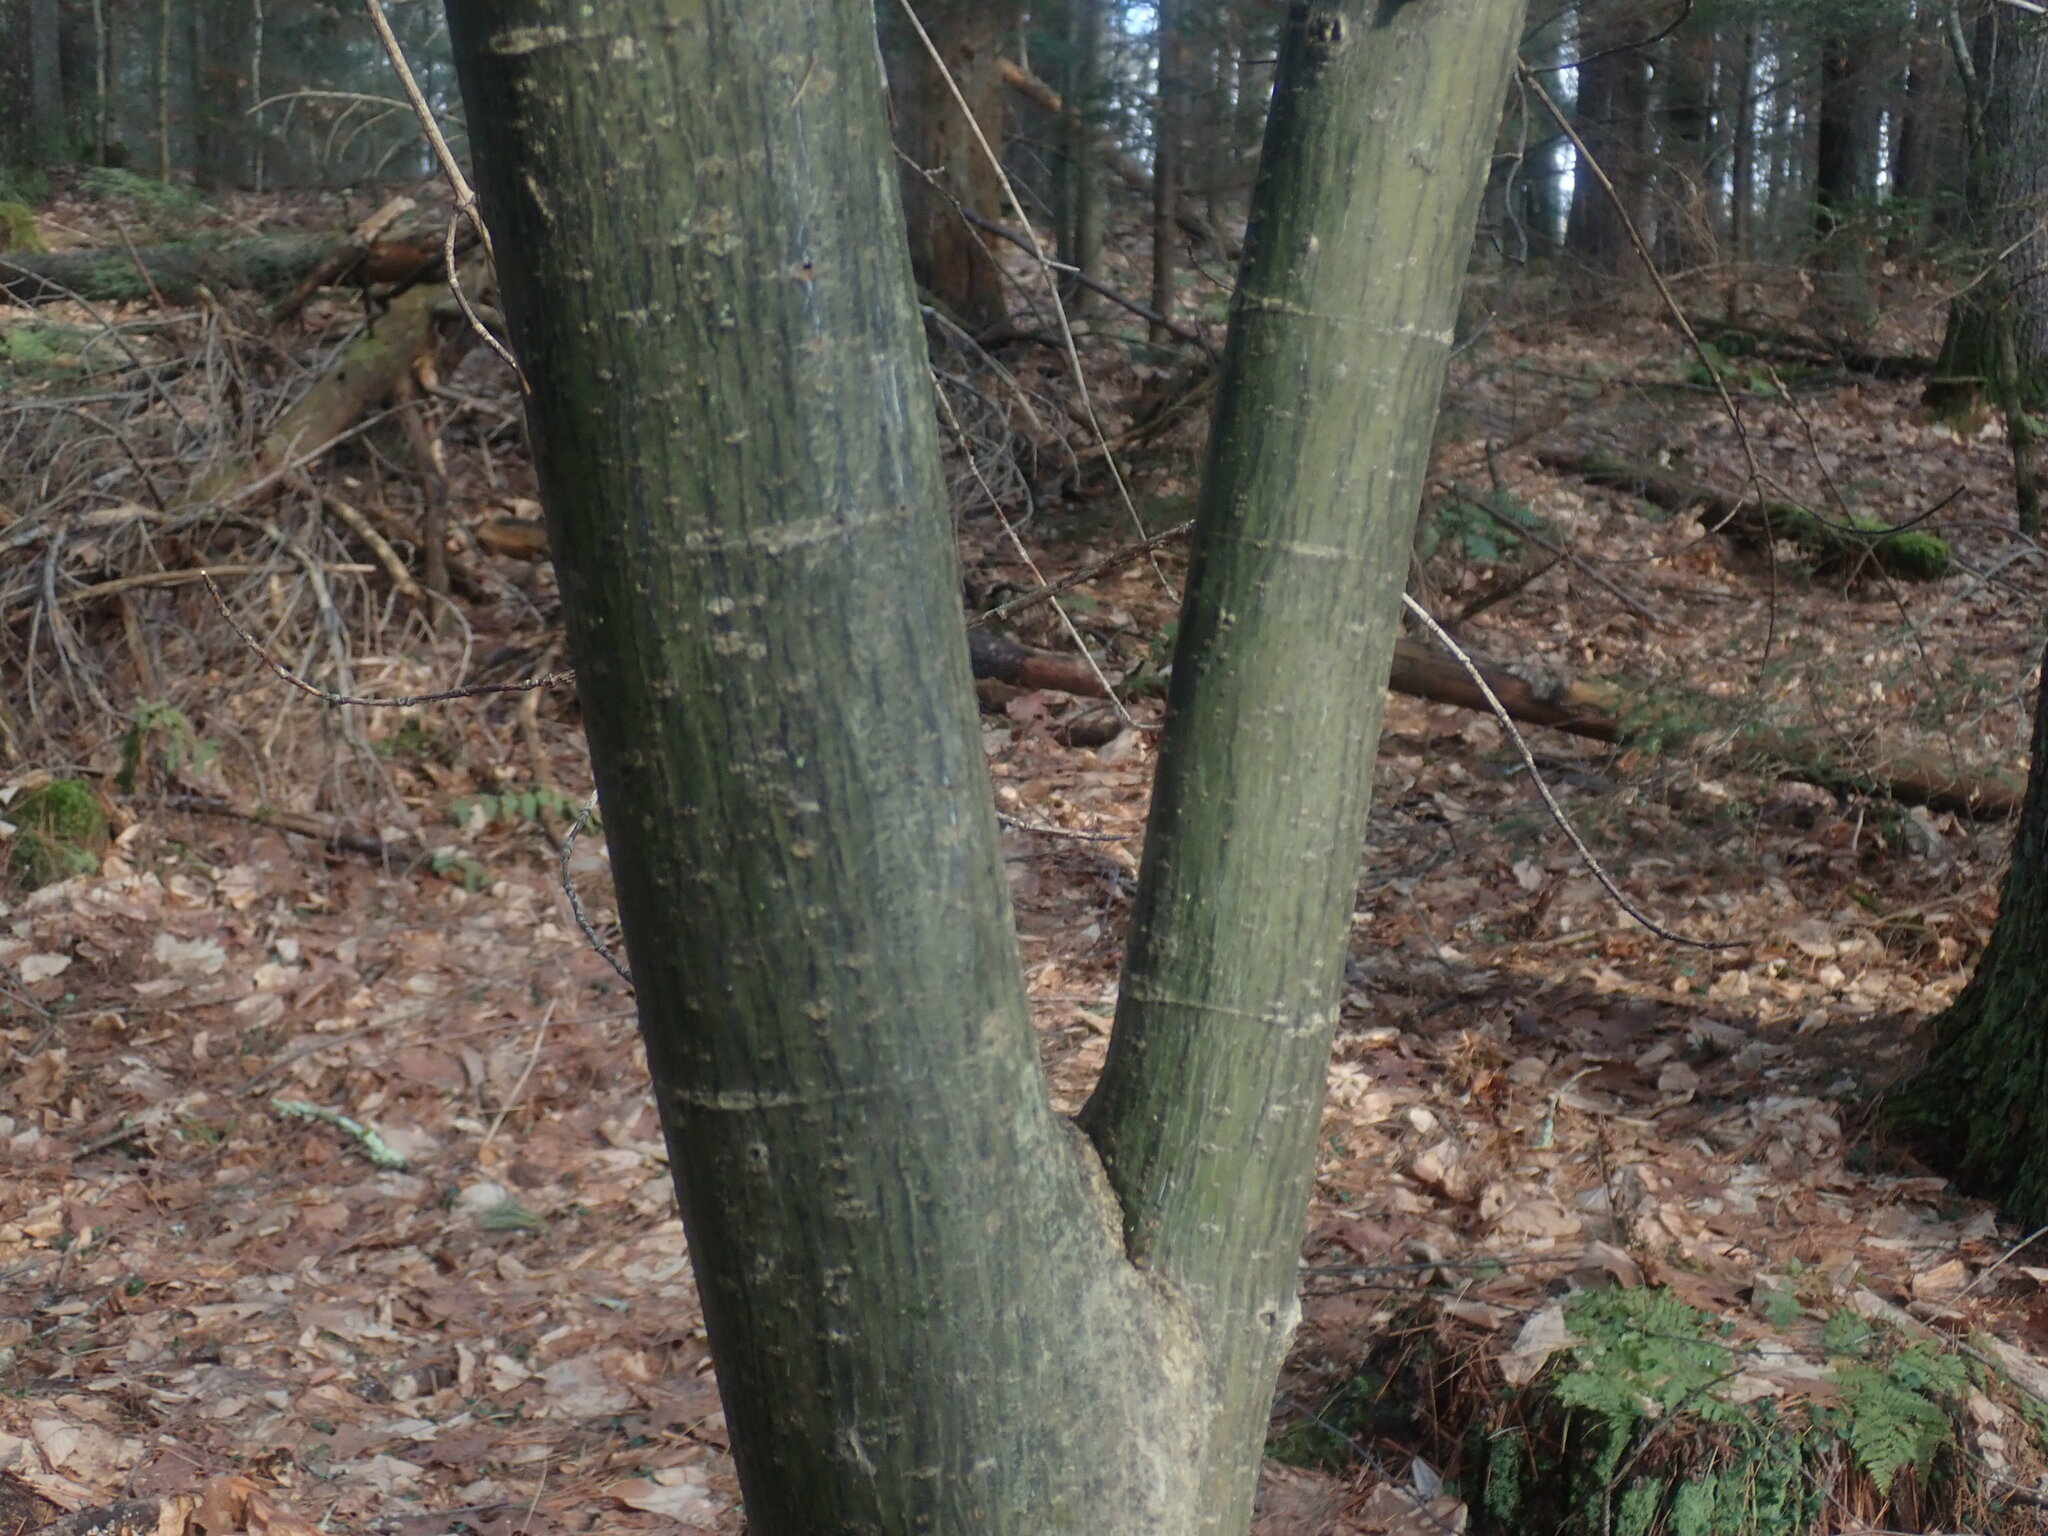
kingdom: Plantae
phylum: Tracheophyta
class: Magnoliopsida
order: Sapindales
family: Sapindaceae
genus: Acer
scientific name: Acer pensylvanicum
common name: Moosewood
